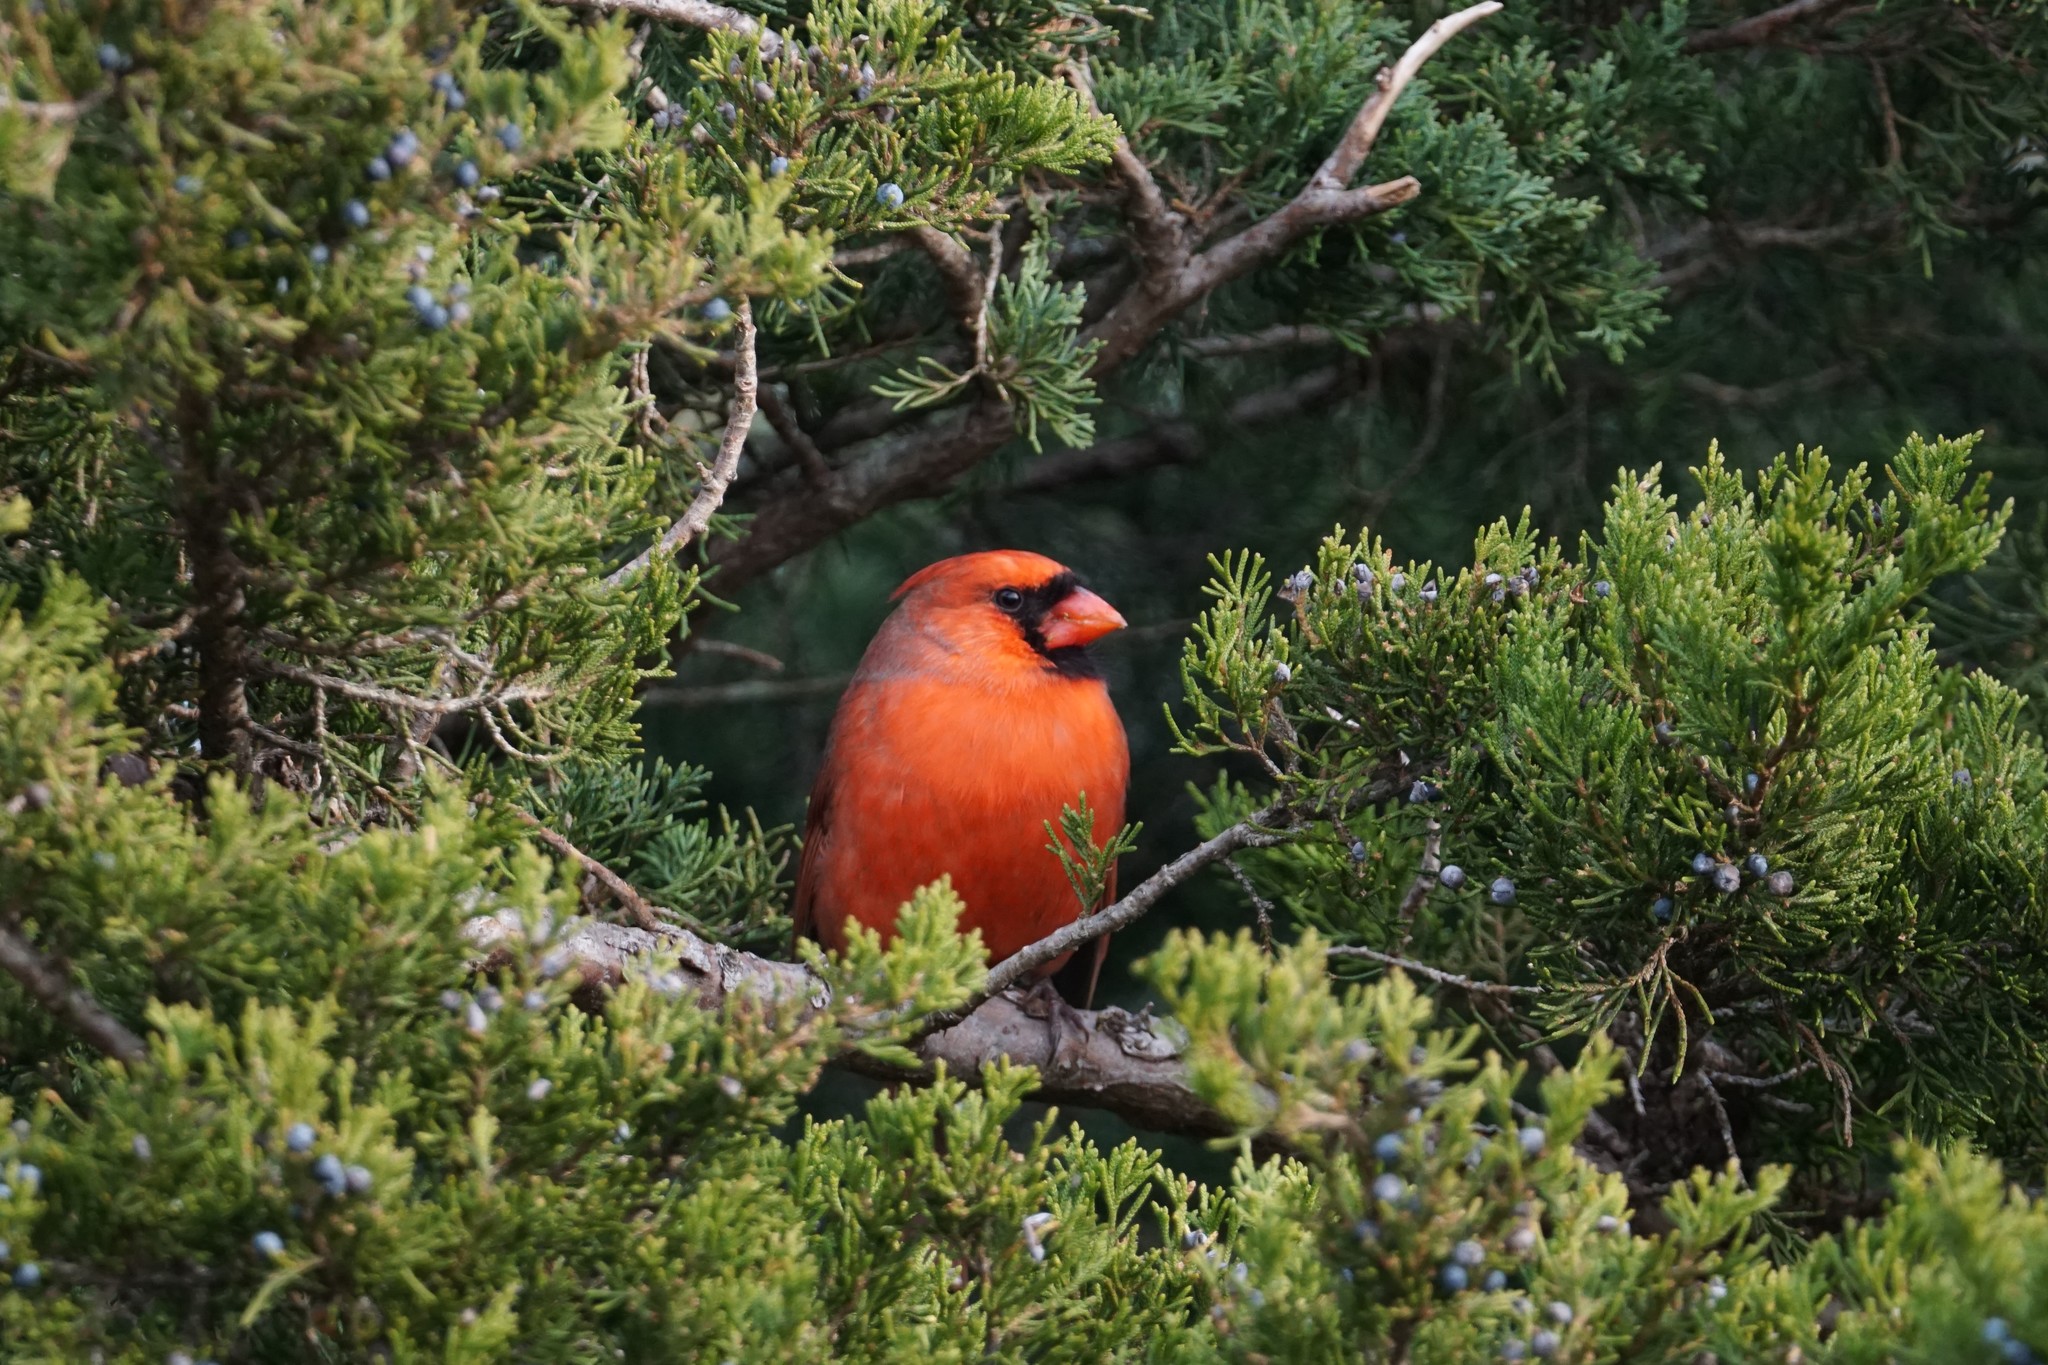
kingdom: Animalia
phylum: Chordata
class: Aves
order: Passeriformes
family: Cardinalidae
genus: Cardinalis
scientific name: Cardinalis cardinalis
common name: Northern cardinal
